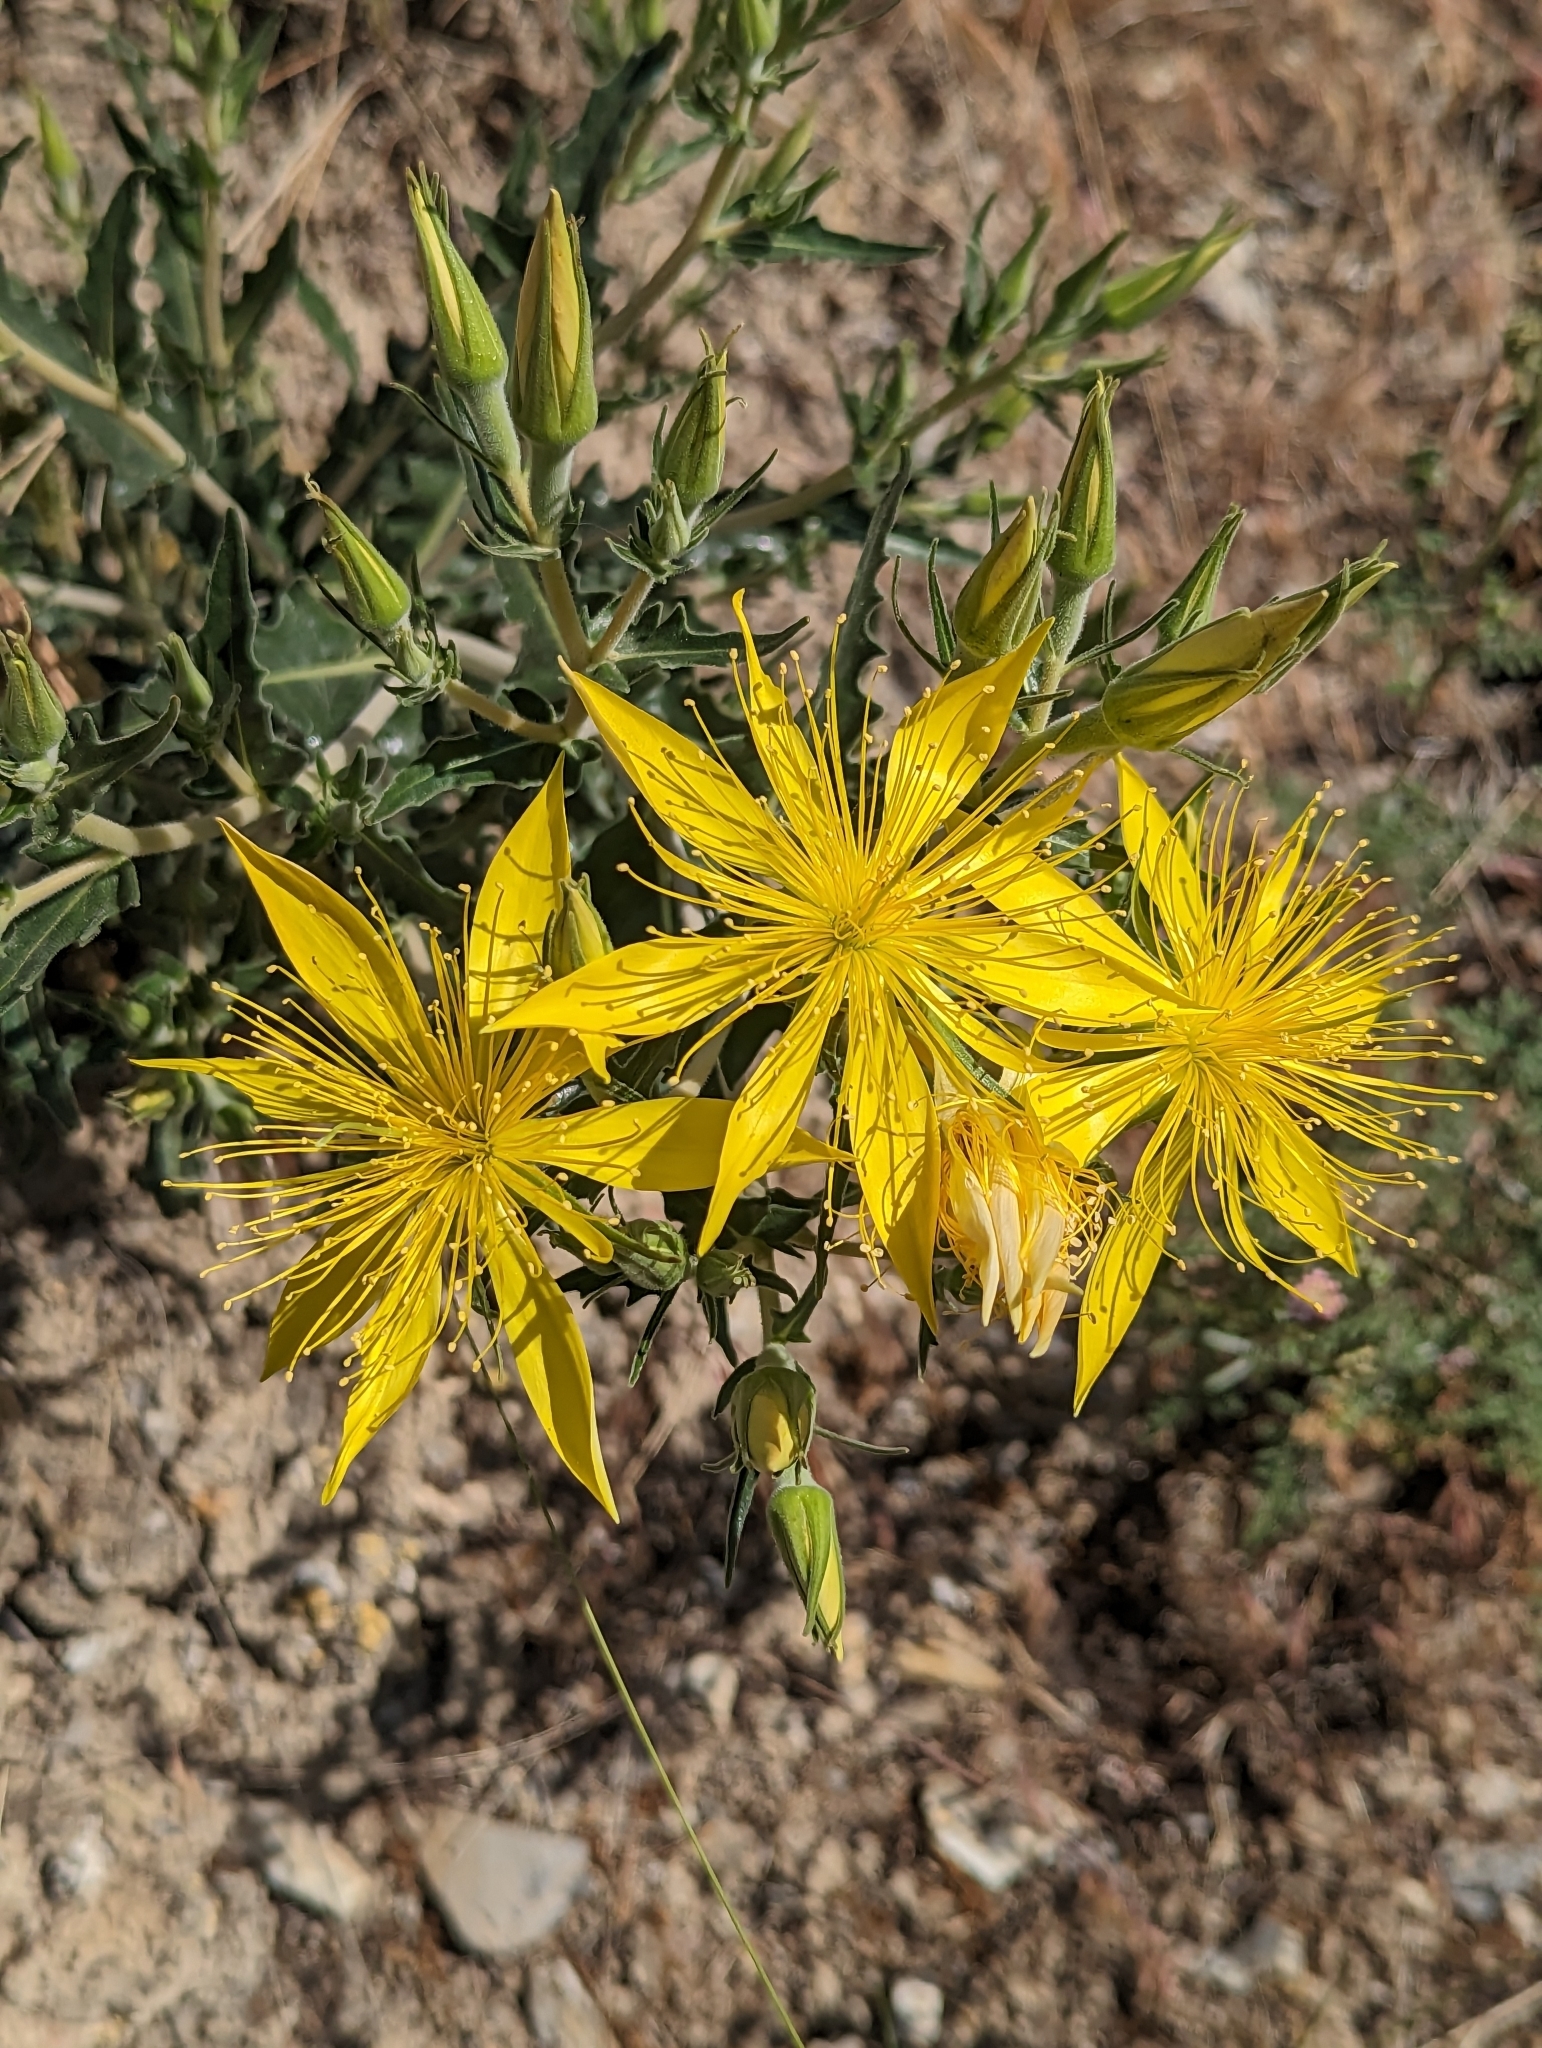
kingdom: Plantae
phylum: Tracheophyta
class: Magnoliopsida
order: Cornales
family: Loasaceae
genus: Mentzelia
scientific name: Mentzelia laevicaulis
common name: Smooth-stem blazingstar
